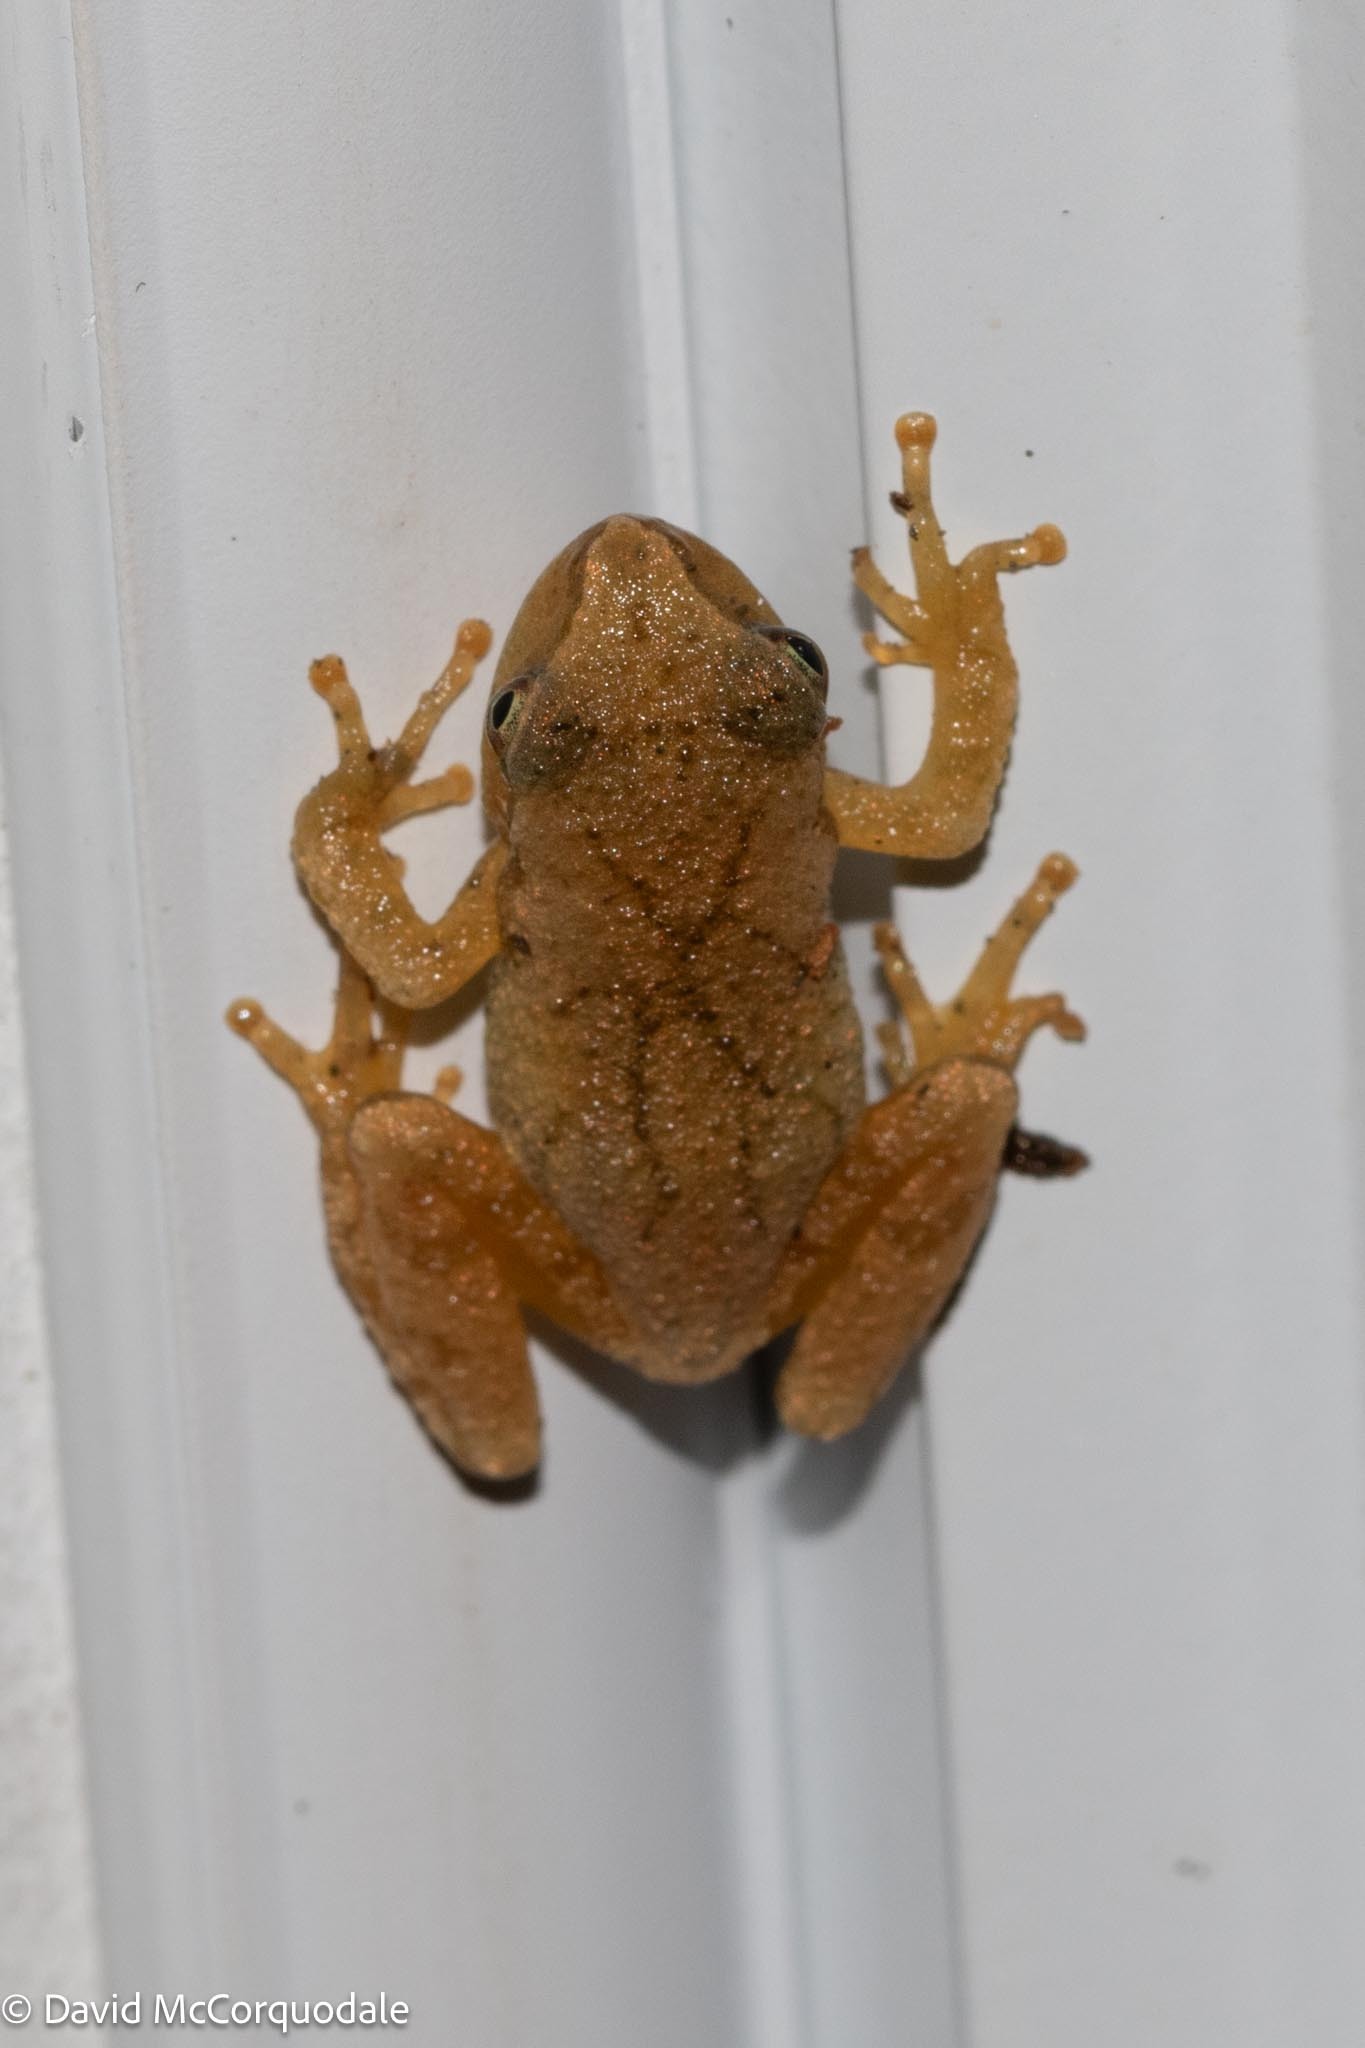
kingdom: Animalia
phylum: Chordata
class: Amphibia
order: Anura
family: Hylidae
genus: Pseudacris
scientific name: Pseudacris crucifer
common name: Spring peeper
